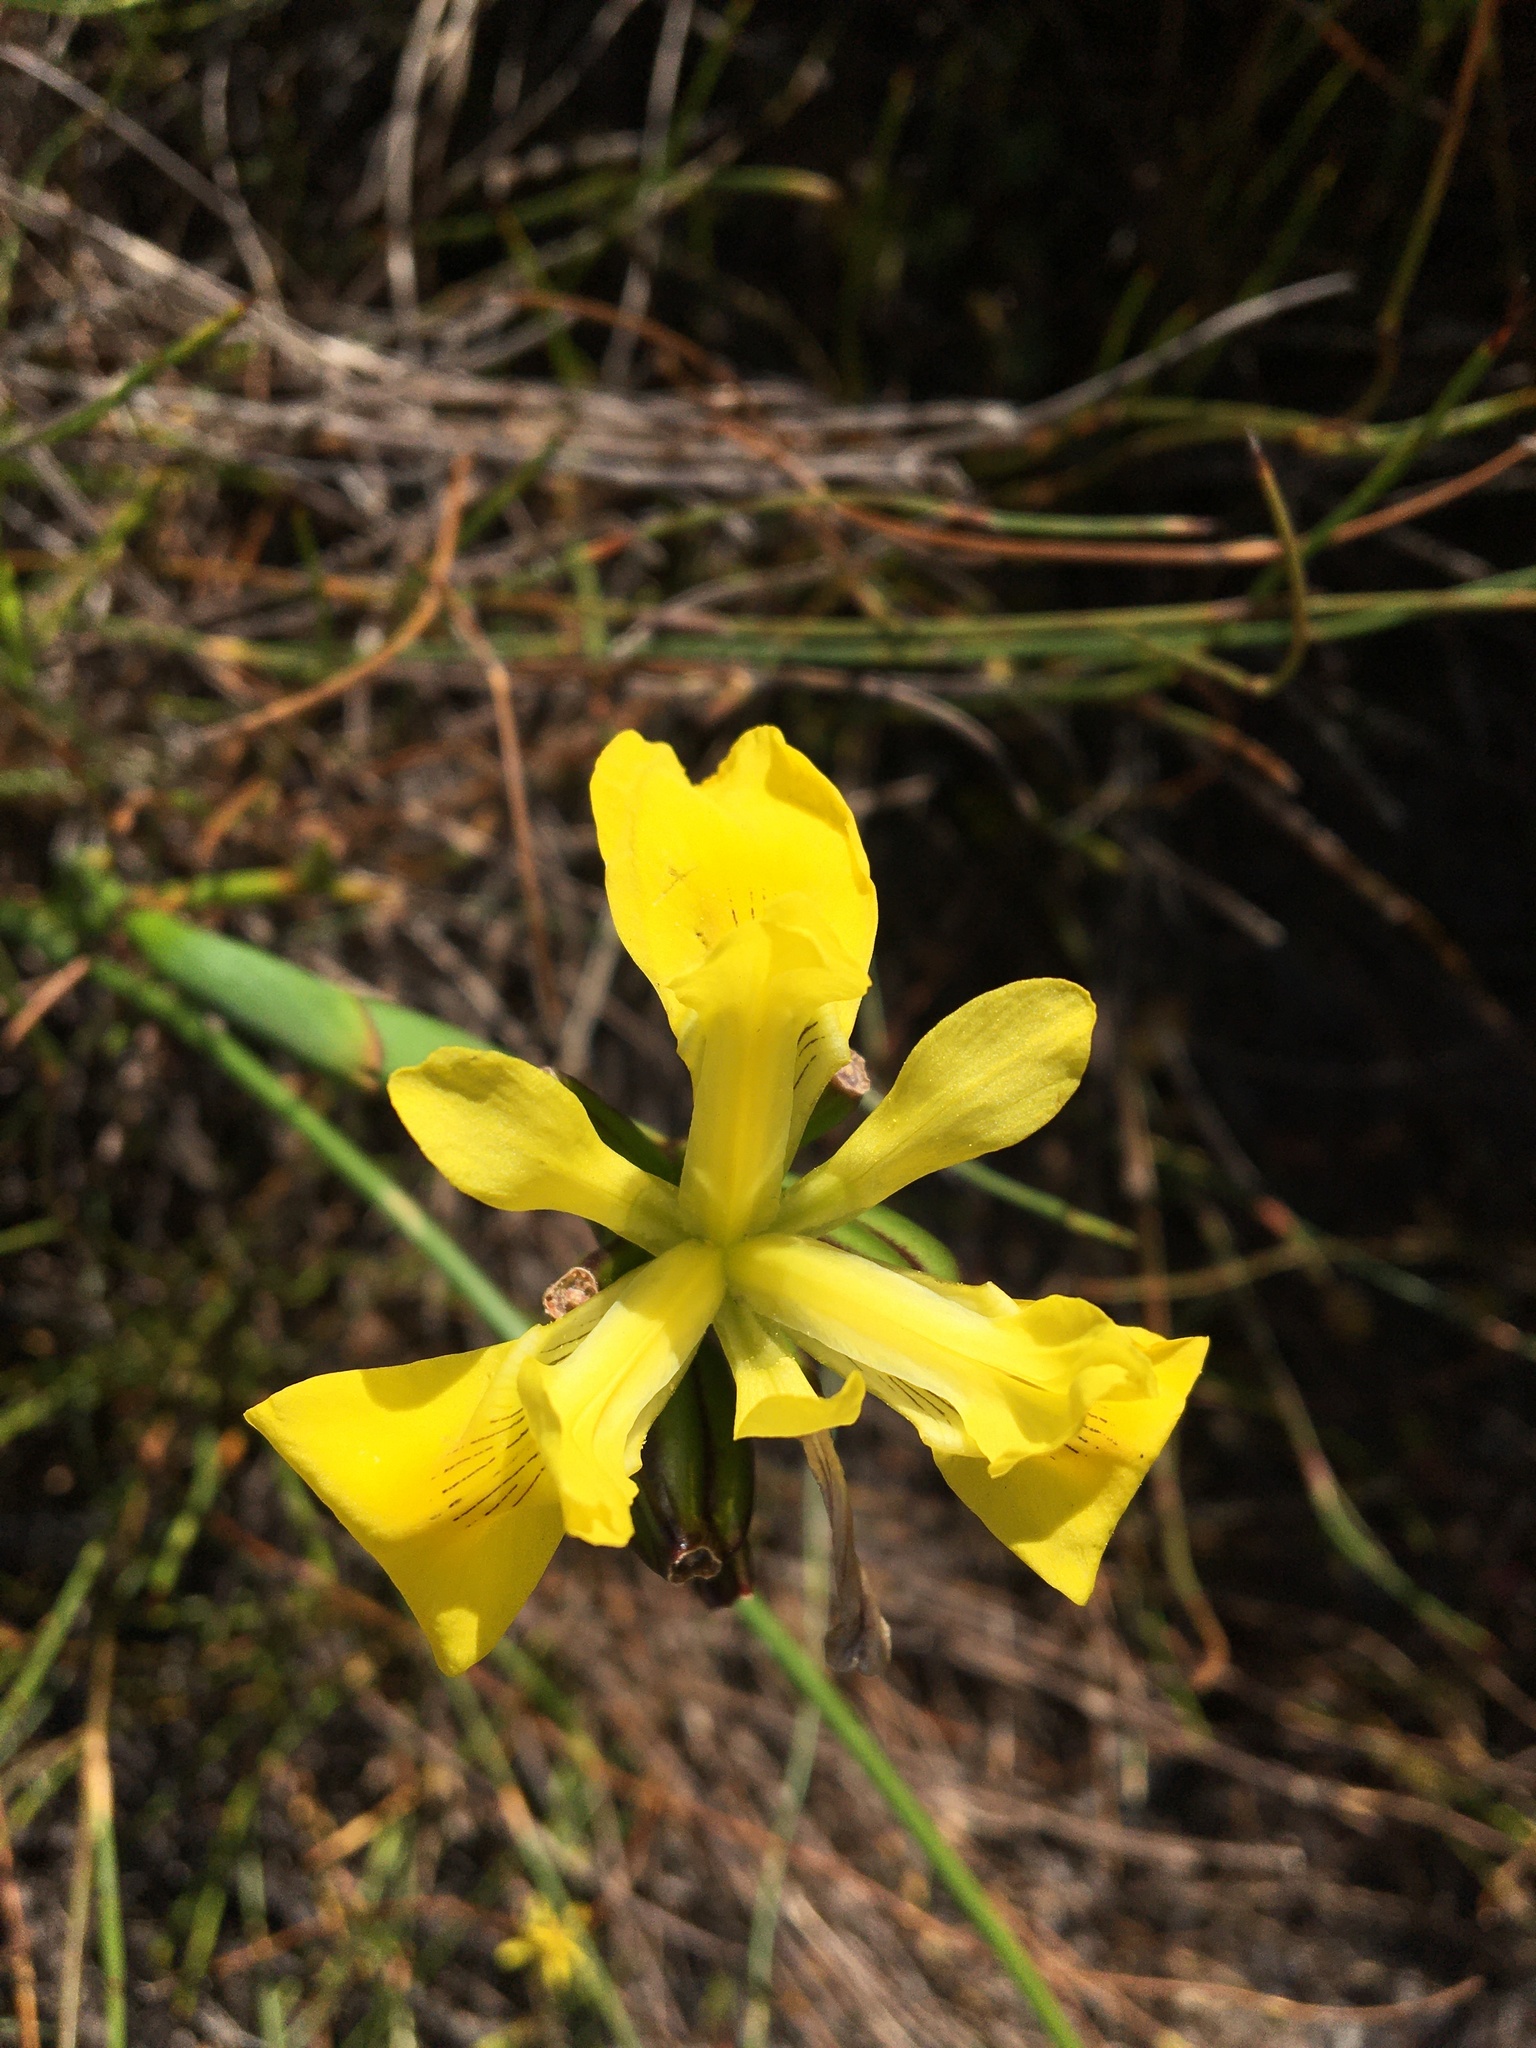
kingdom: Plantae
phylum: Tracheophyta
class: Liliopsida
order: Asparagales
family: Iridaceae
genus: Moraea
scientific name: Moraea neglecta
